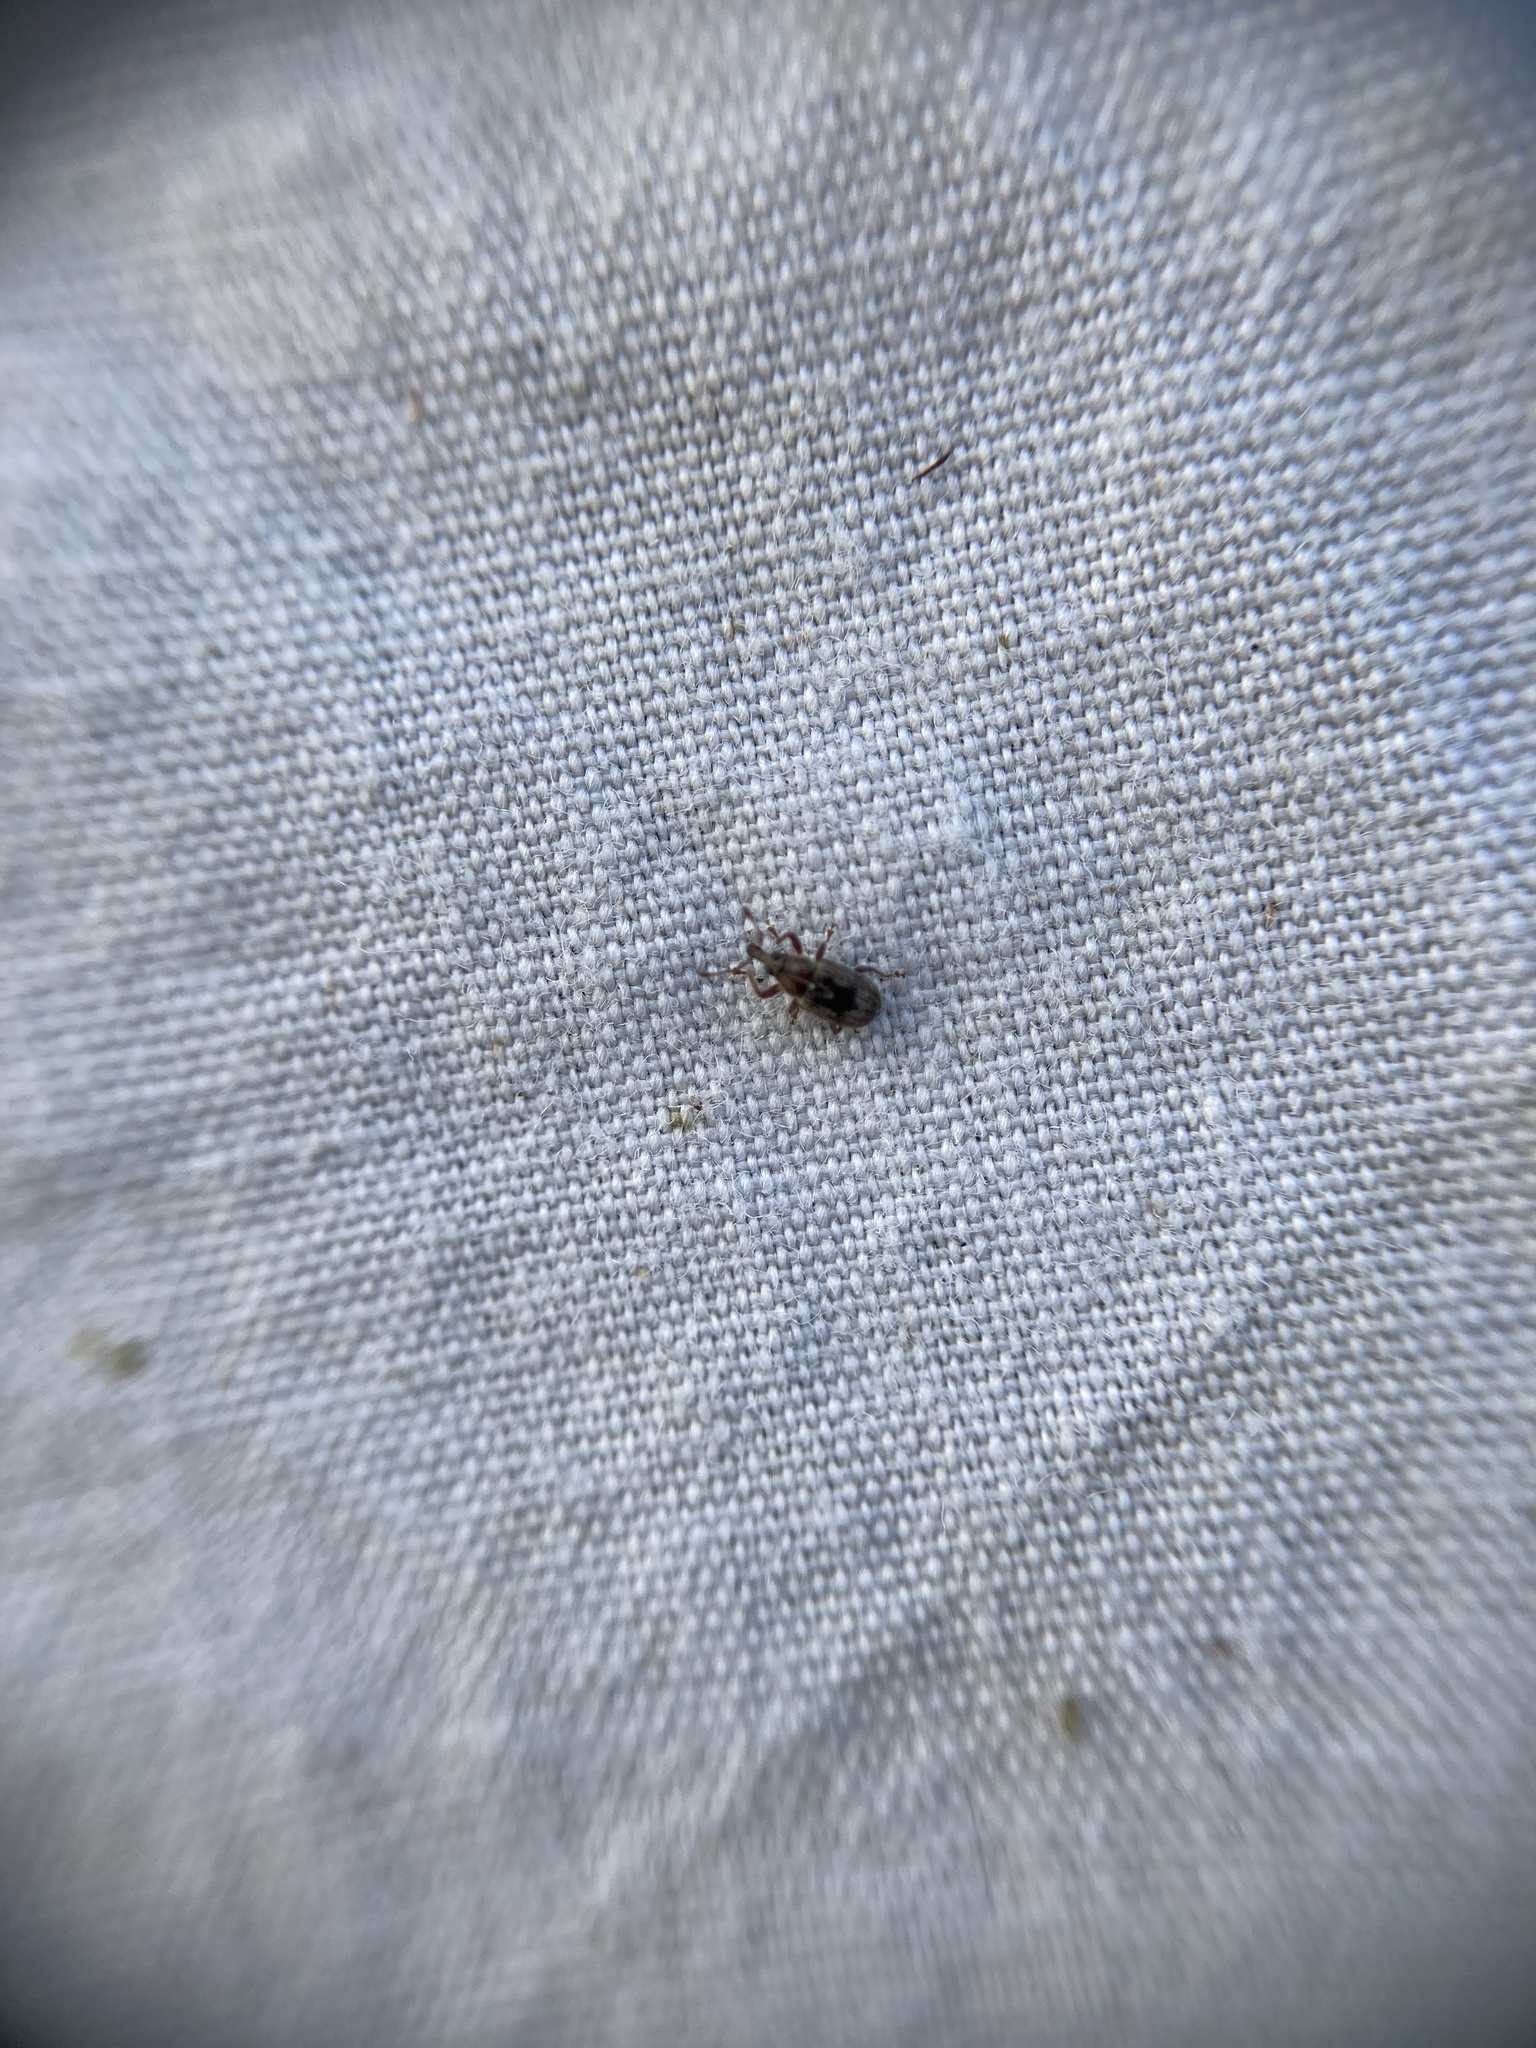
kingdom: Animalia
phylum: Arthropoda
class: Insecta
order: Coleoptera
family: Curculionidae
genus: Neomycta
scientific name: Neomycta rubida
